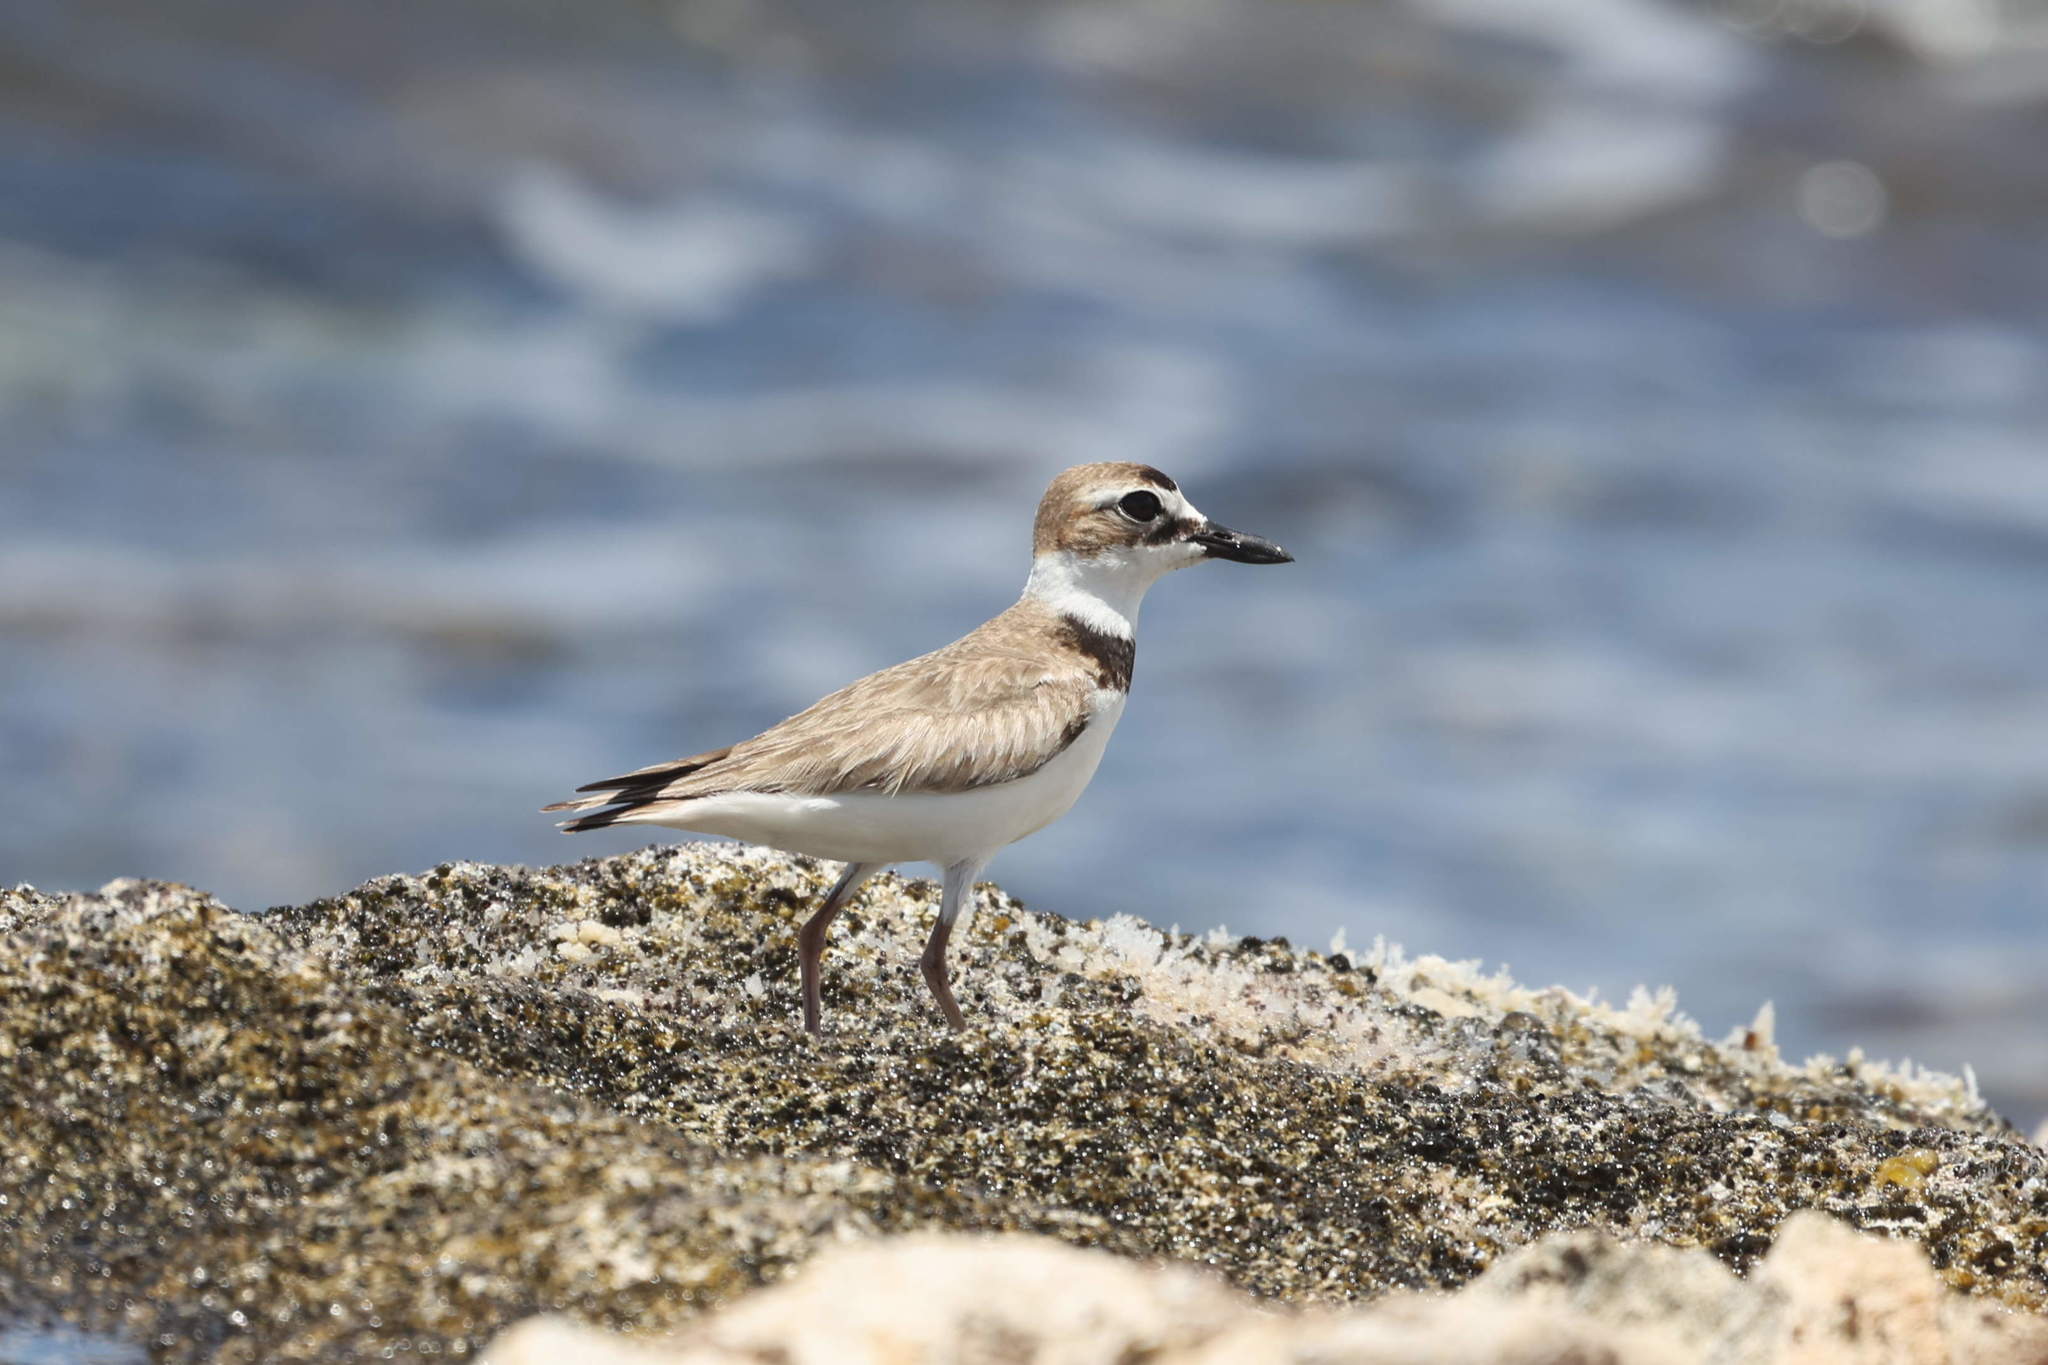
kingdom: Animalia
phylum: Chordata
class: Aves
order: Charadriiformes
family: Charadriidae
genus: Anarhynchus
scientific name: Anarhynchus
